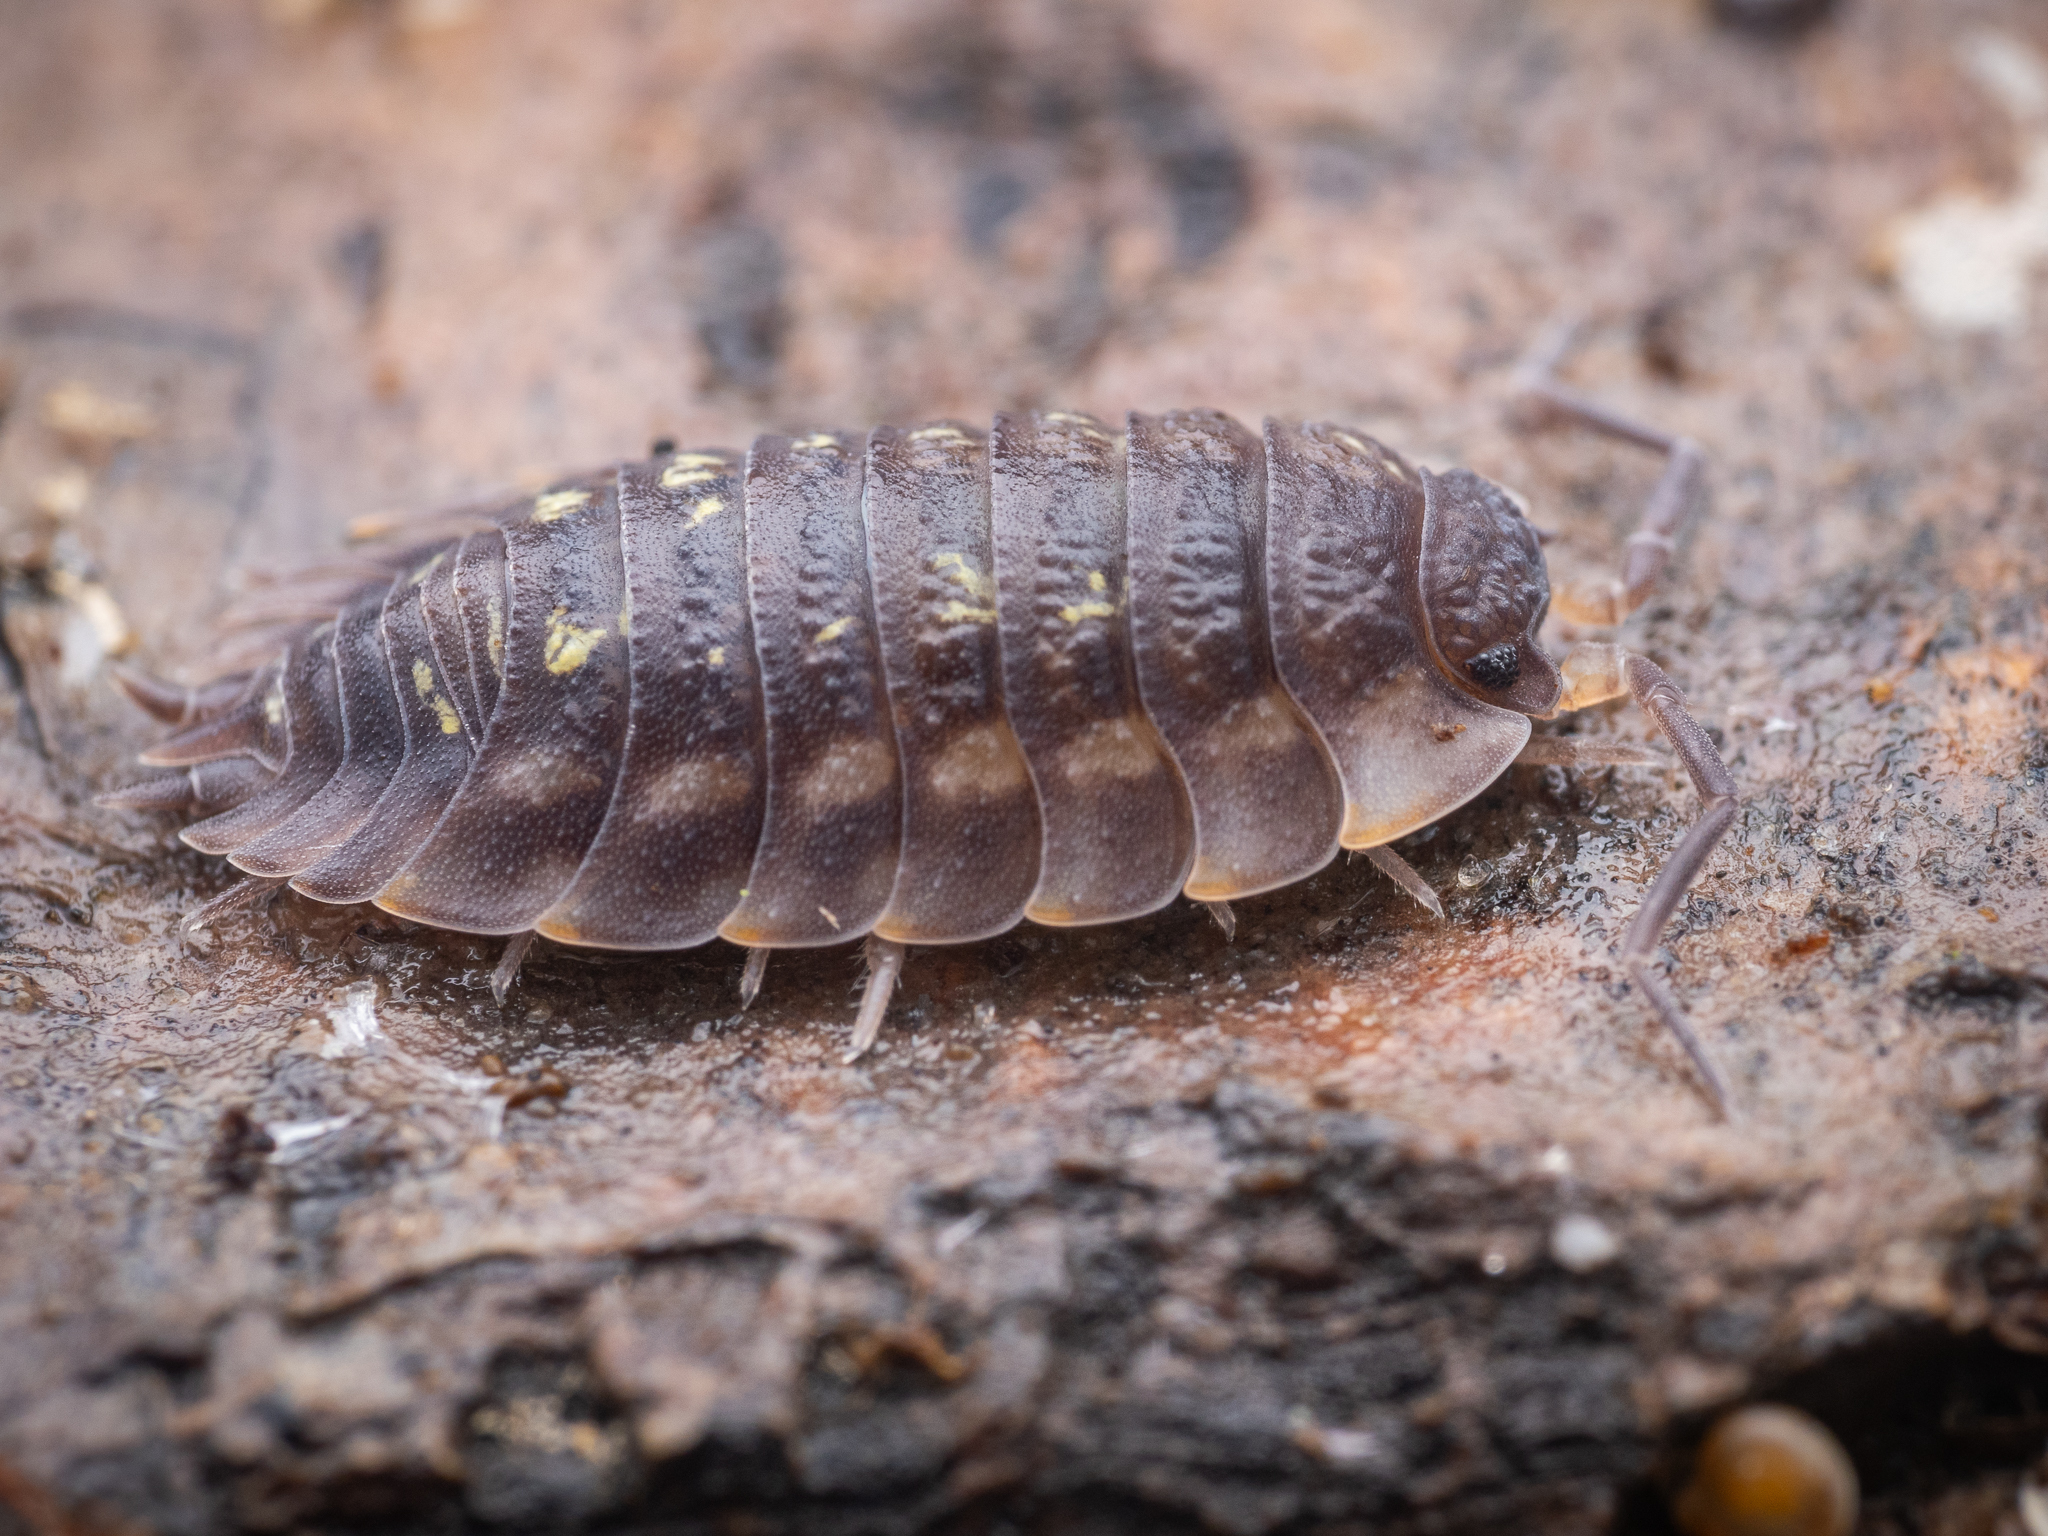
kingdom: Animalia
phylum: Arthropoda
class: Malacostraca
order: Isopoda
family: Oniscidae
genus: Oniscus
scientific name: Oniscus asellus
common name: Common shiny woodlouse
